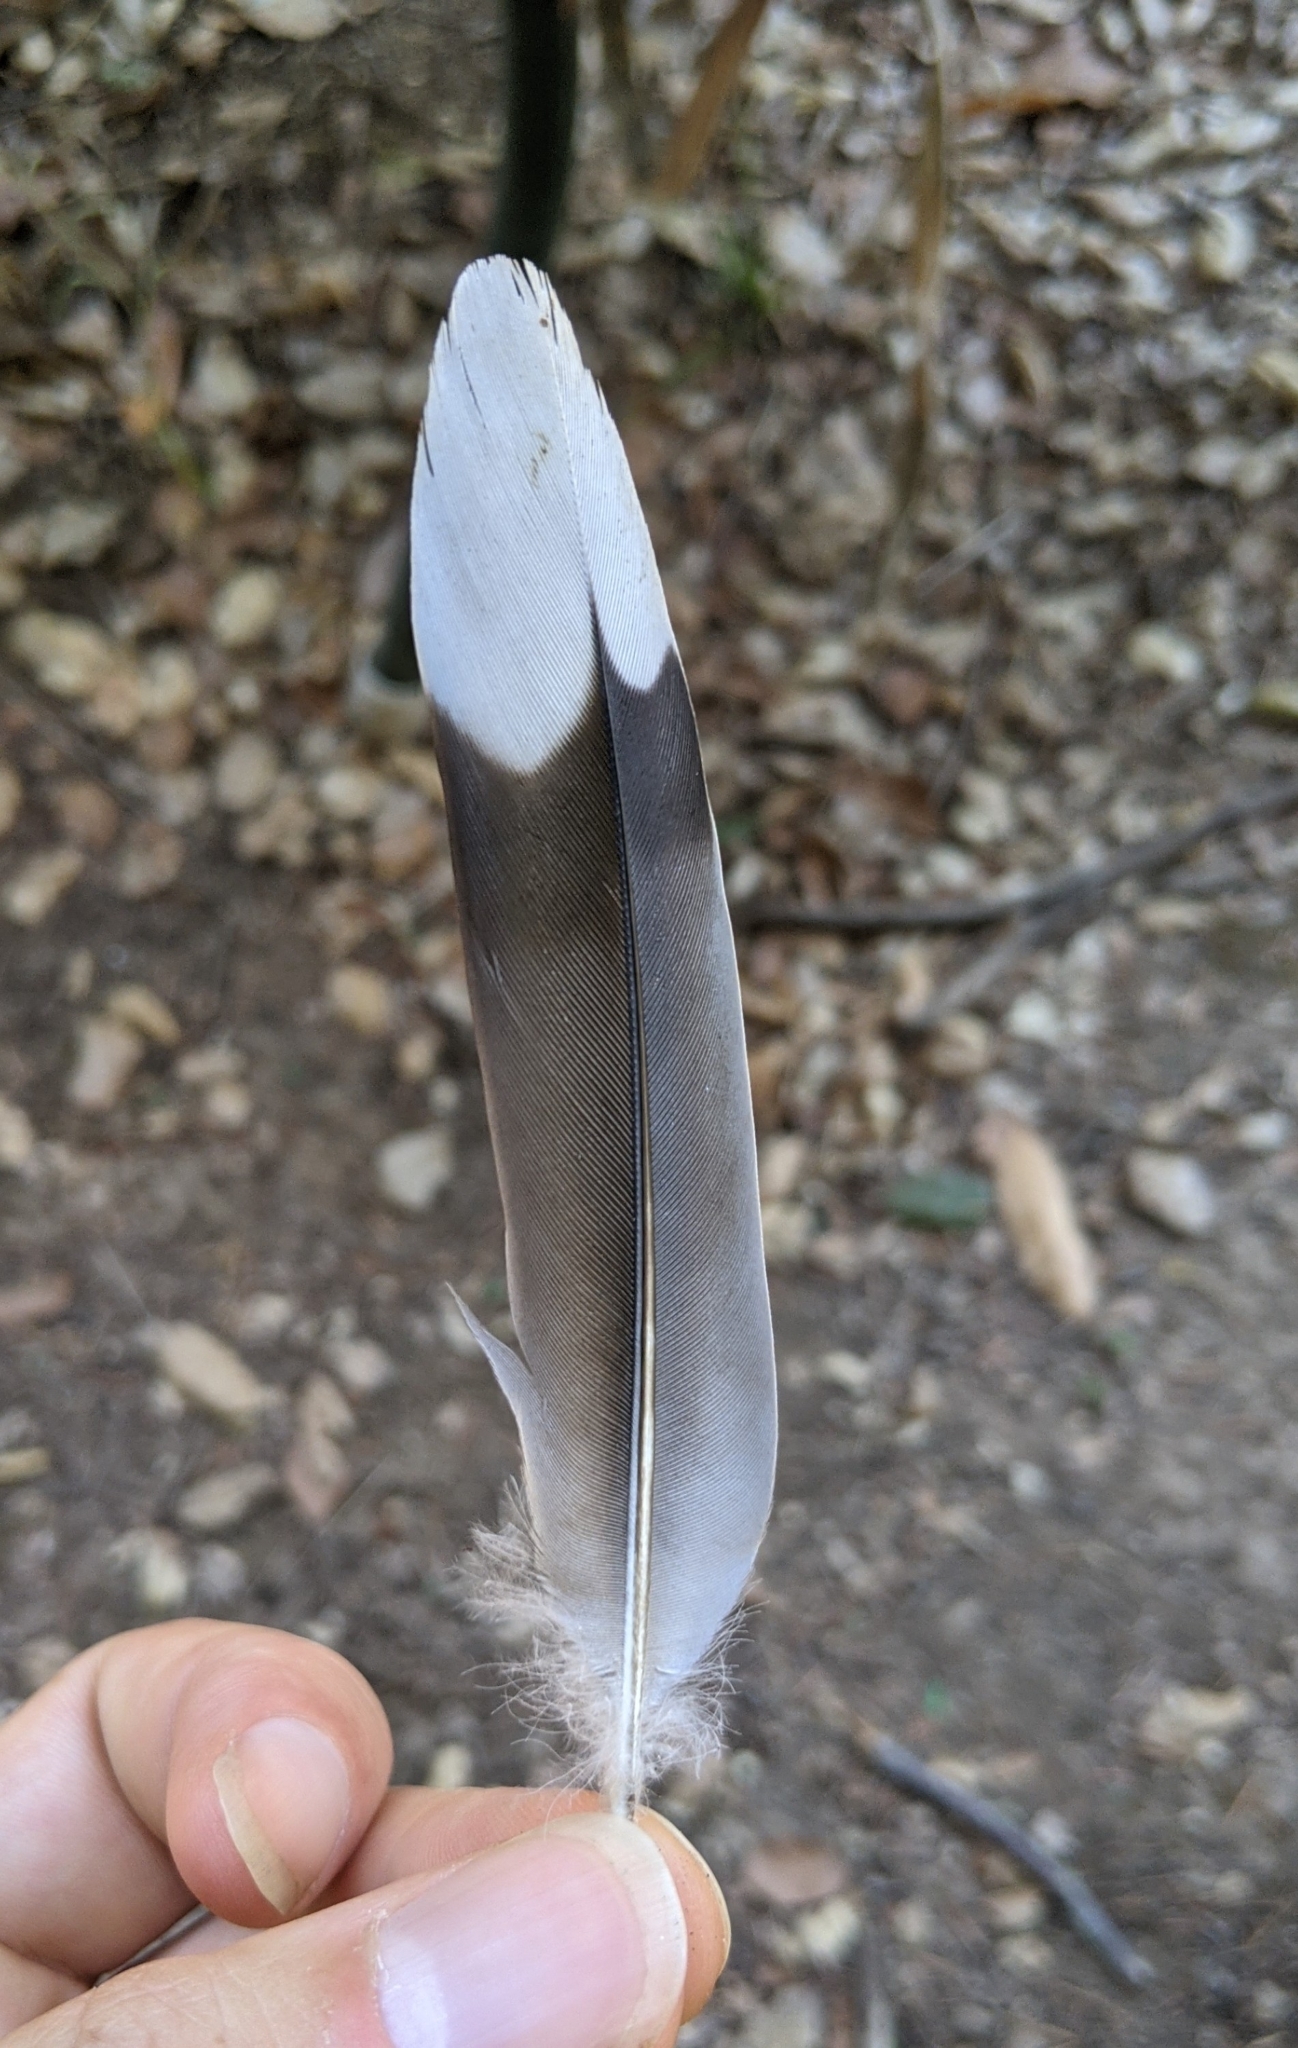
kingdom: Animalia
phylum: Chordata
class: Aves
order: Columbiformes
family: Columbidae
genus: Zenaida
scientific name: Zenaida macroura
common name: Mourning dove
